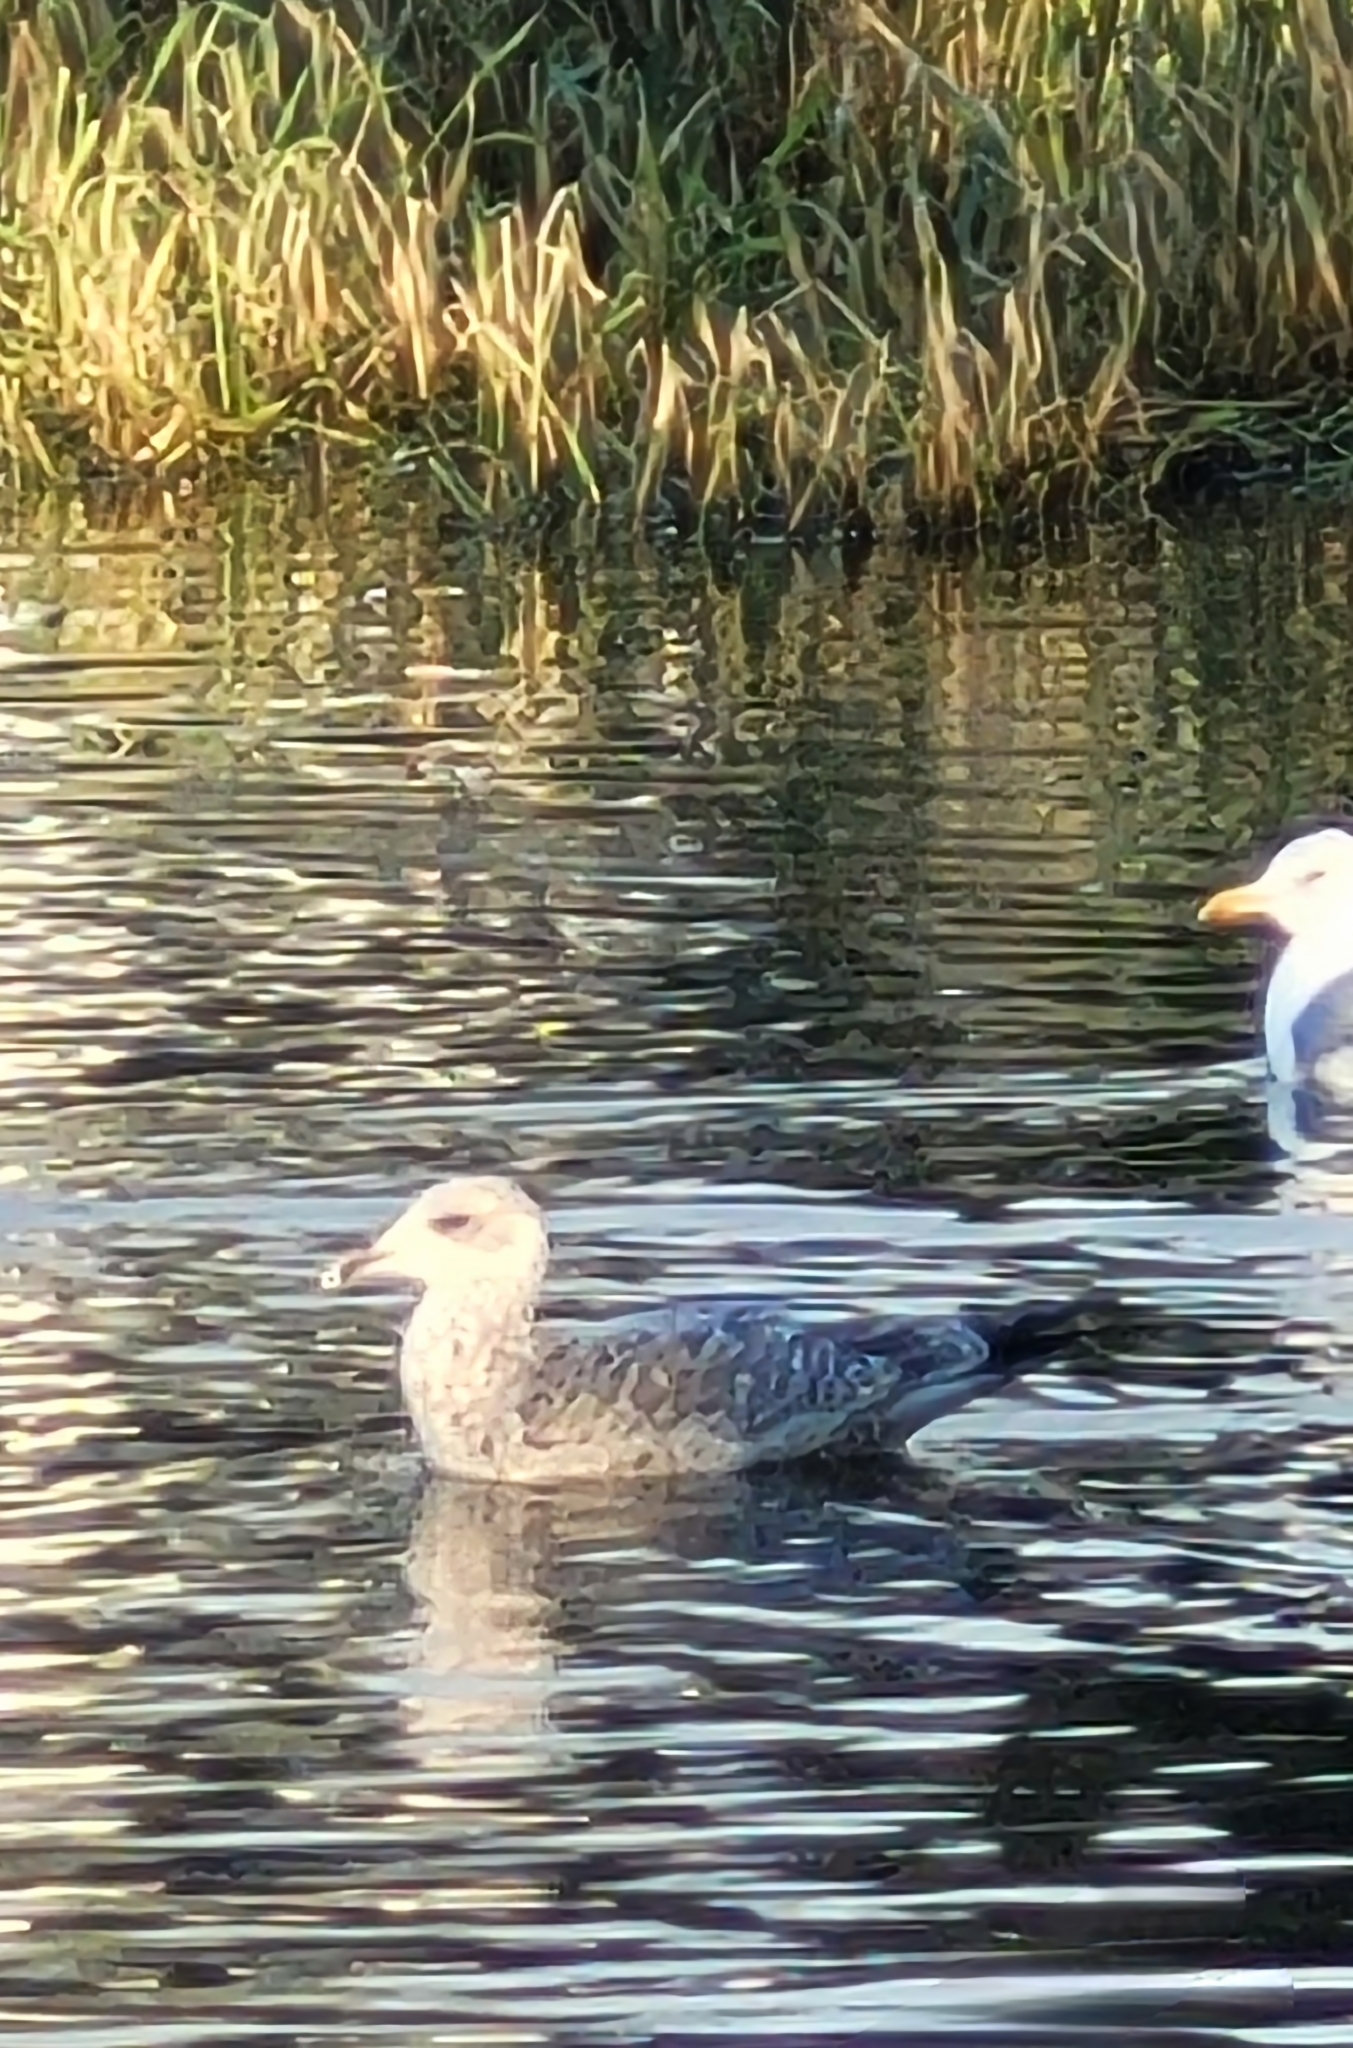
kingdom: Animalia
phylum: Chordata
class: Aves
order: Charadriiformes
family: Laridae
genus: Larus
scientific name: Larus argentatus
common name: Herring gull
